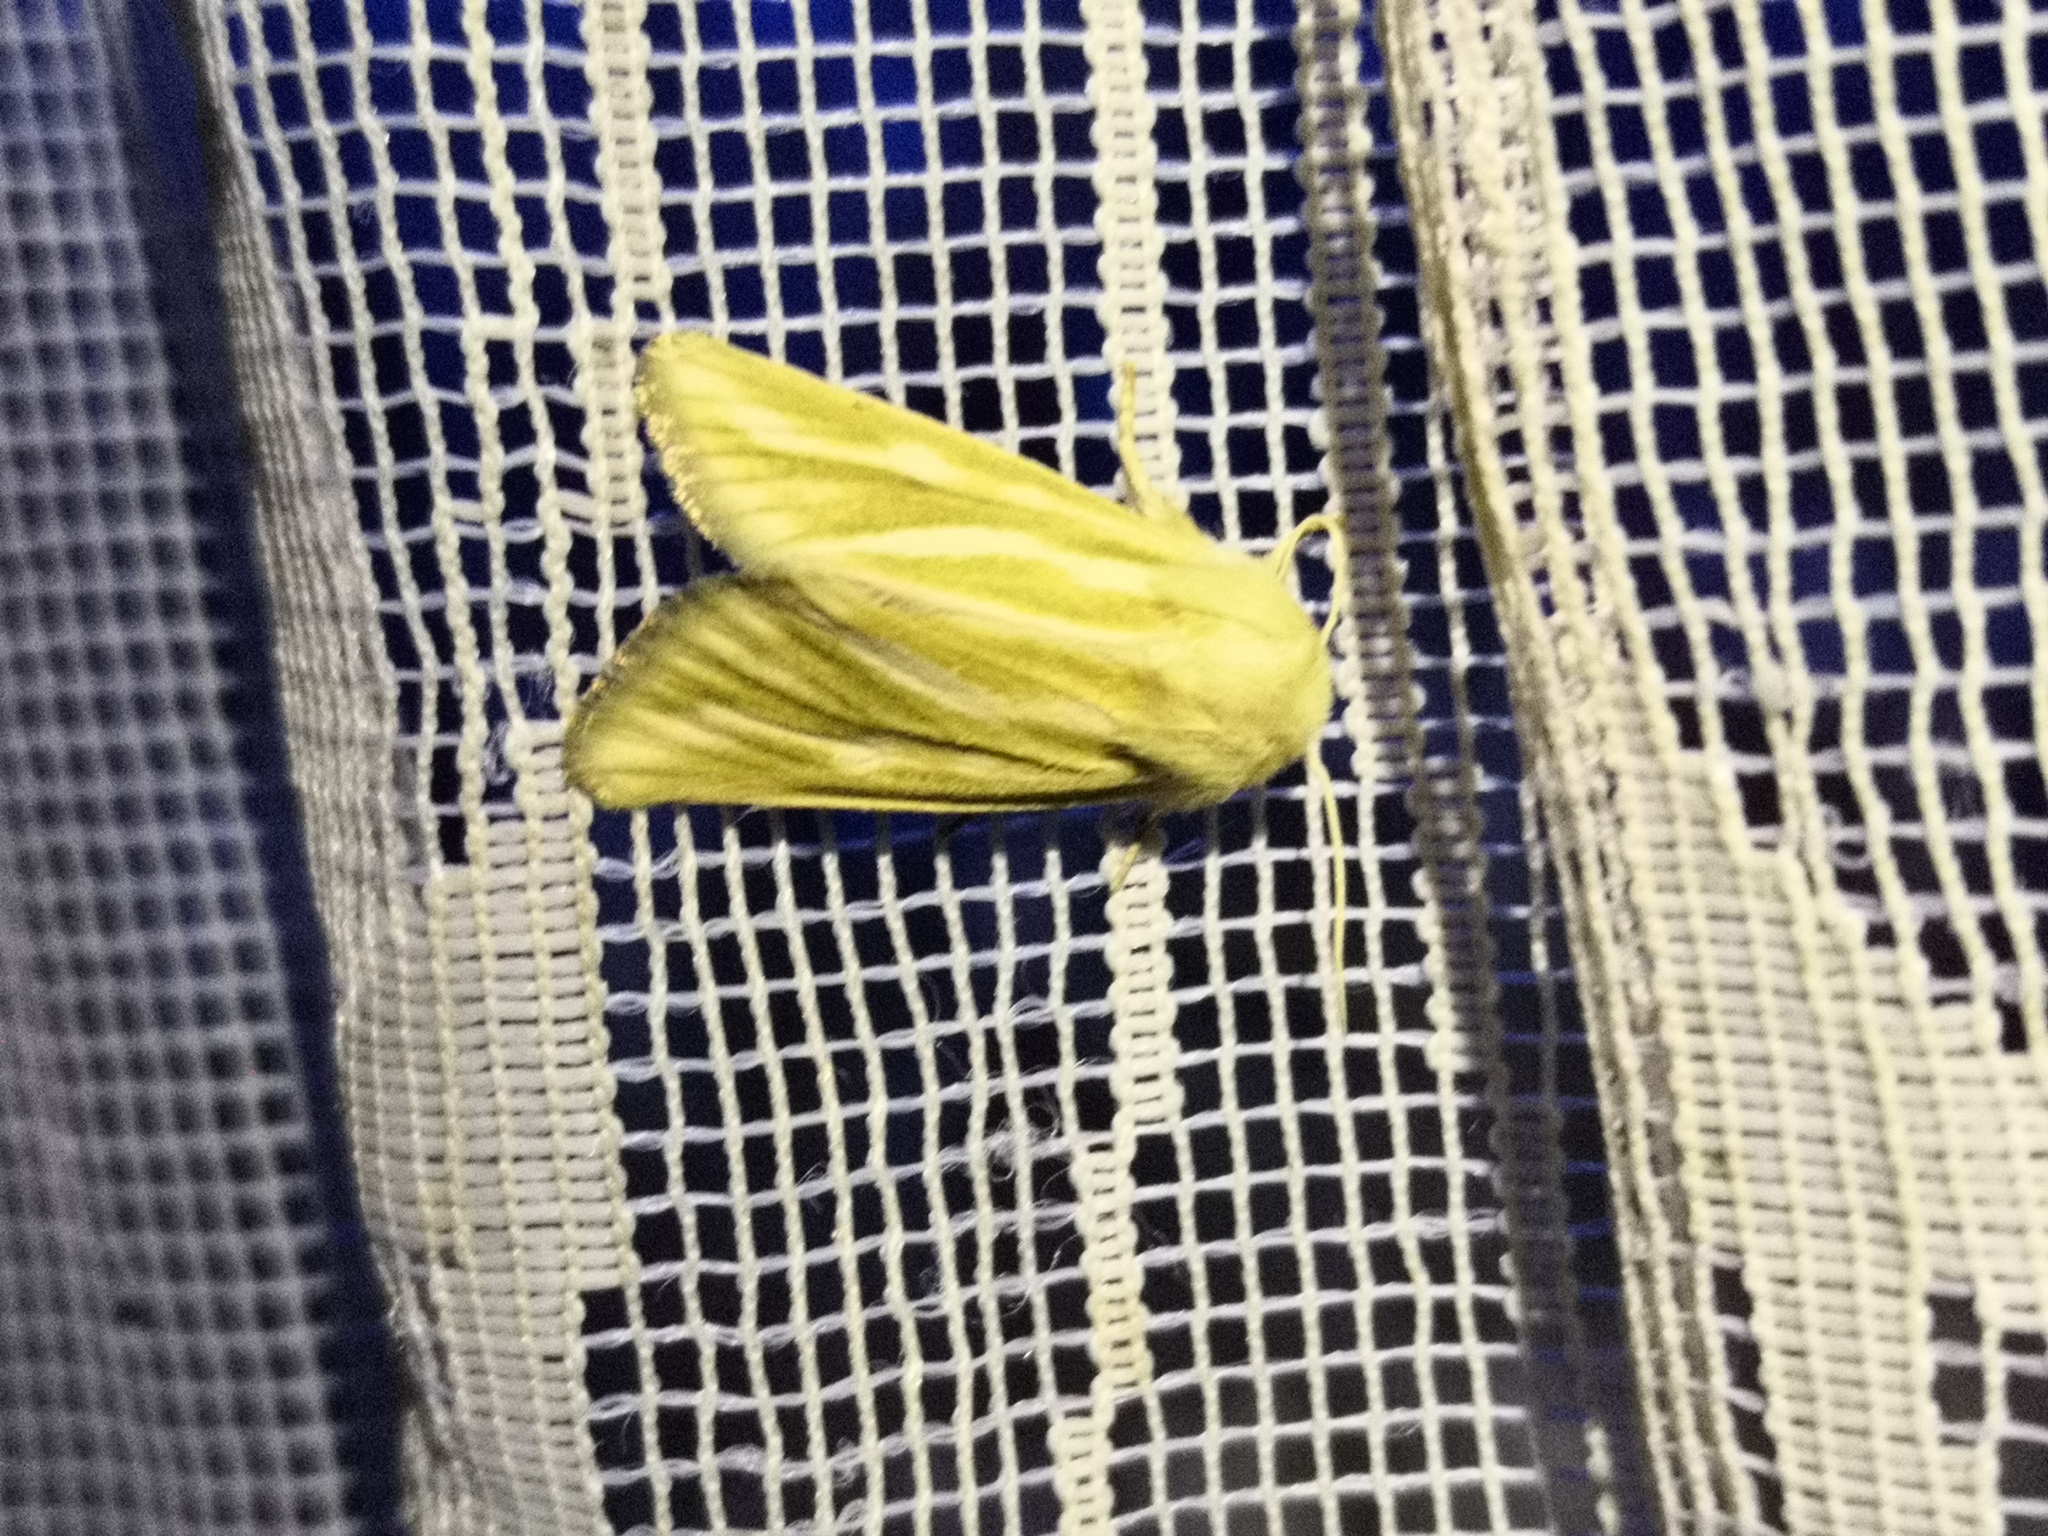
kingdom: Animalia
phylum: Arthropoda
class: Insecta
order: Lepidoptera
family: Noctuidae
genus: Oria
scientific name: Oria musculosa
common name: Brighton wainscot
